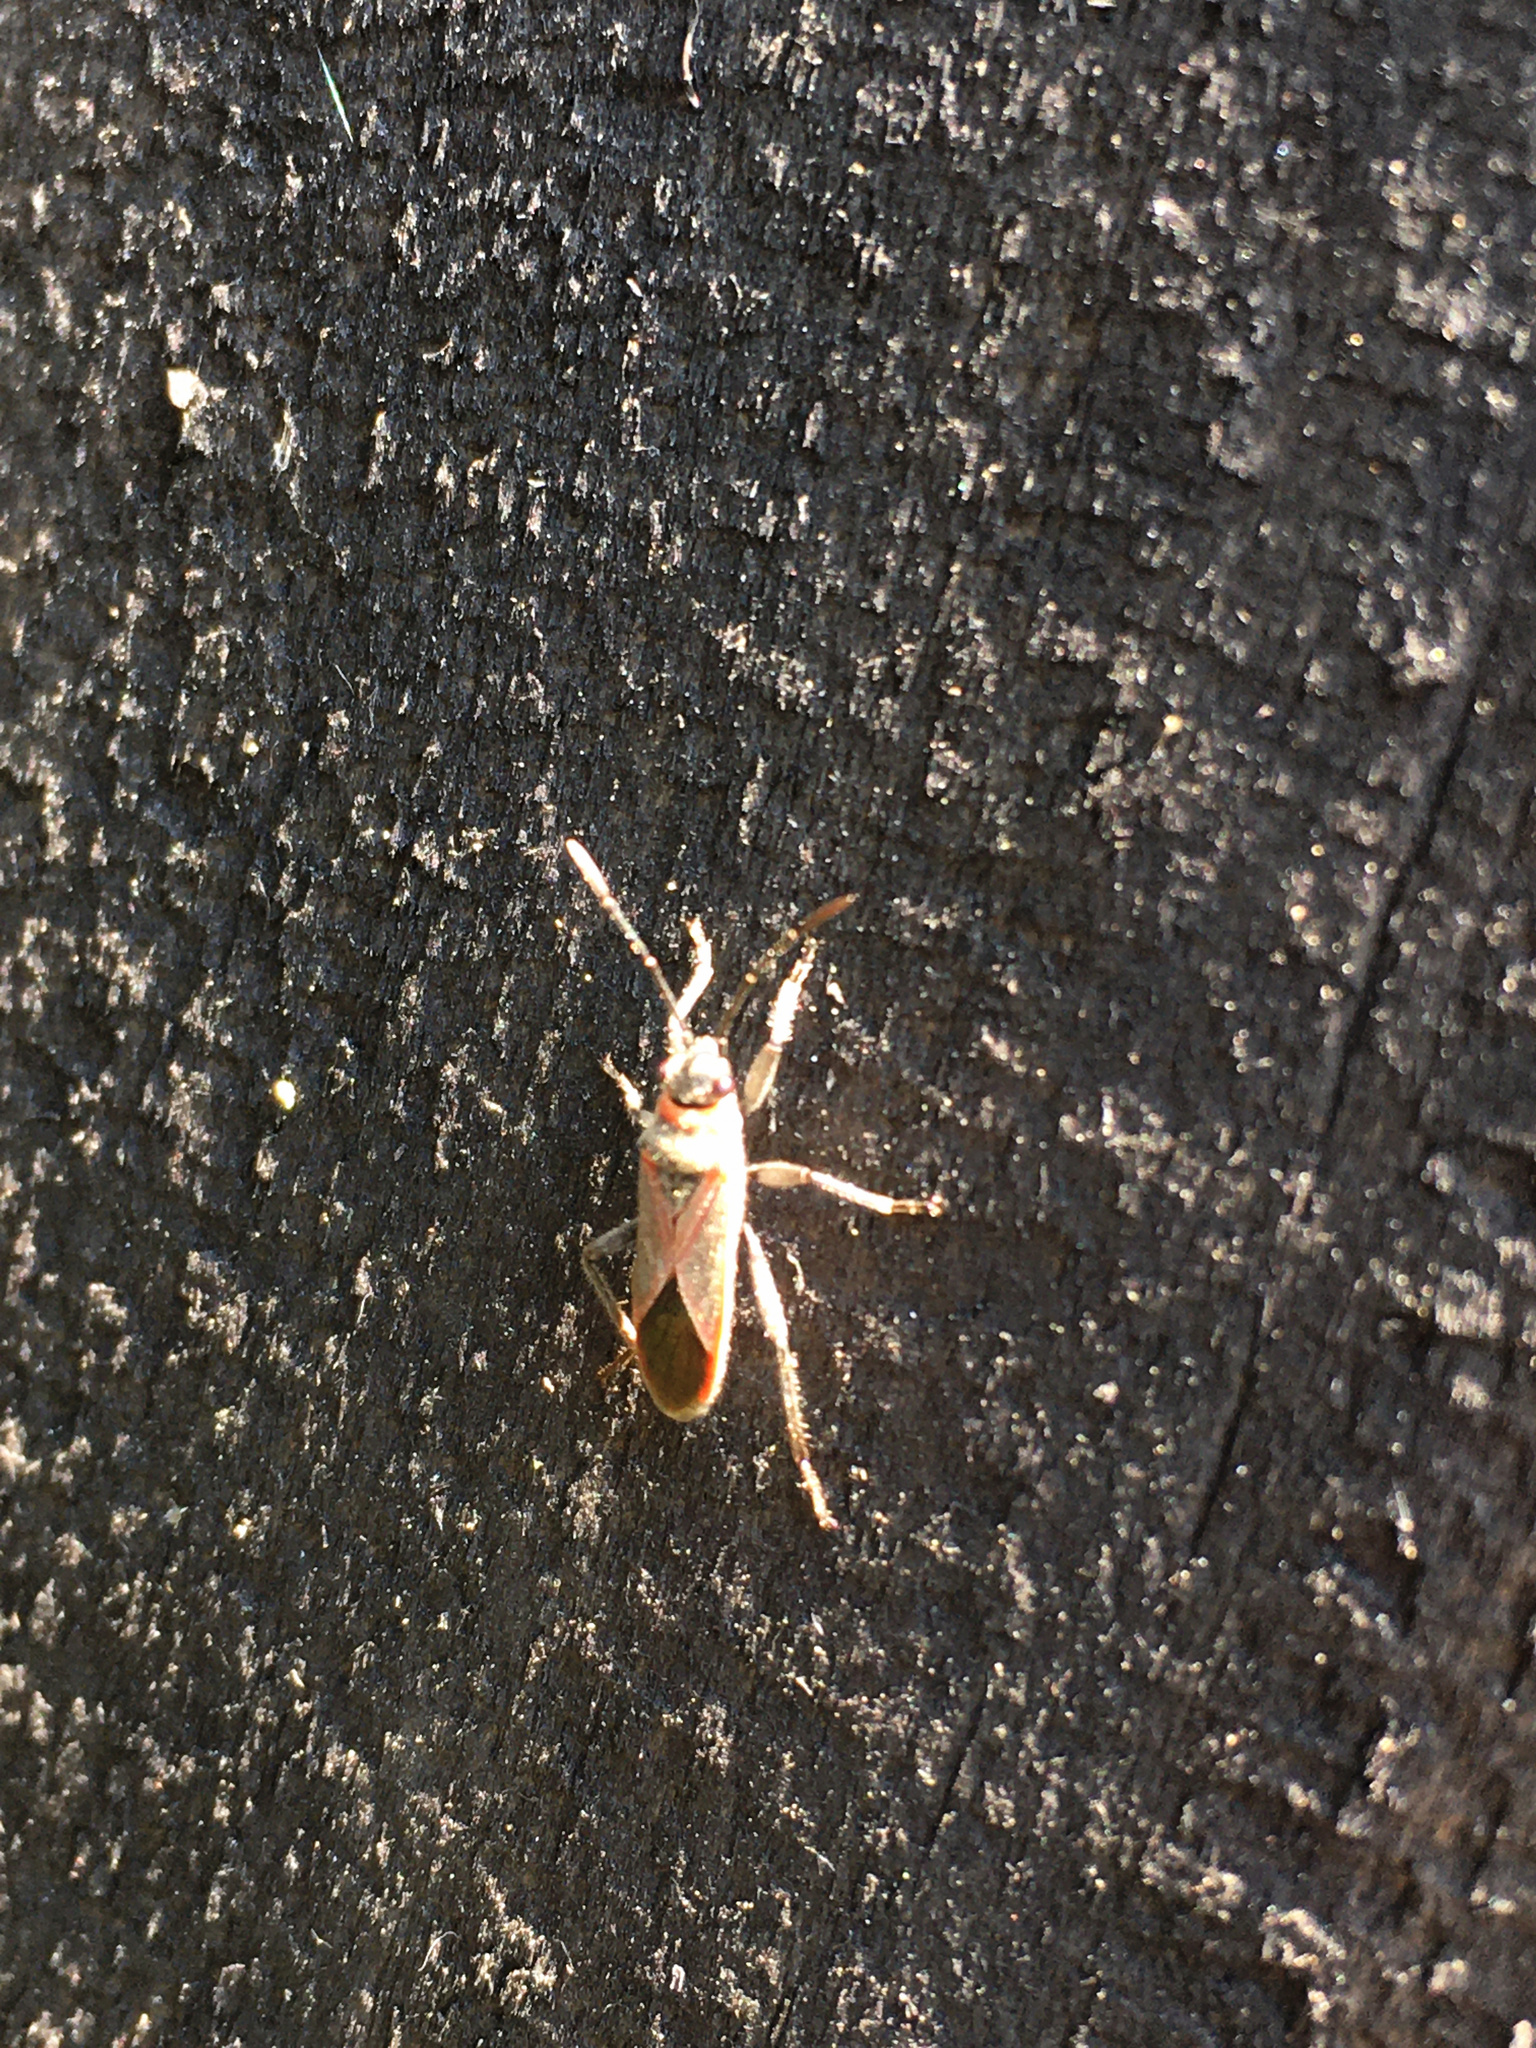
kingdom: Animalia
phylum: Arthropoda
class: Insecta
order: Hemiptera
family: Lygaeidae
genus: Arocatus
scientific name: Arocatus rusticus
